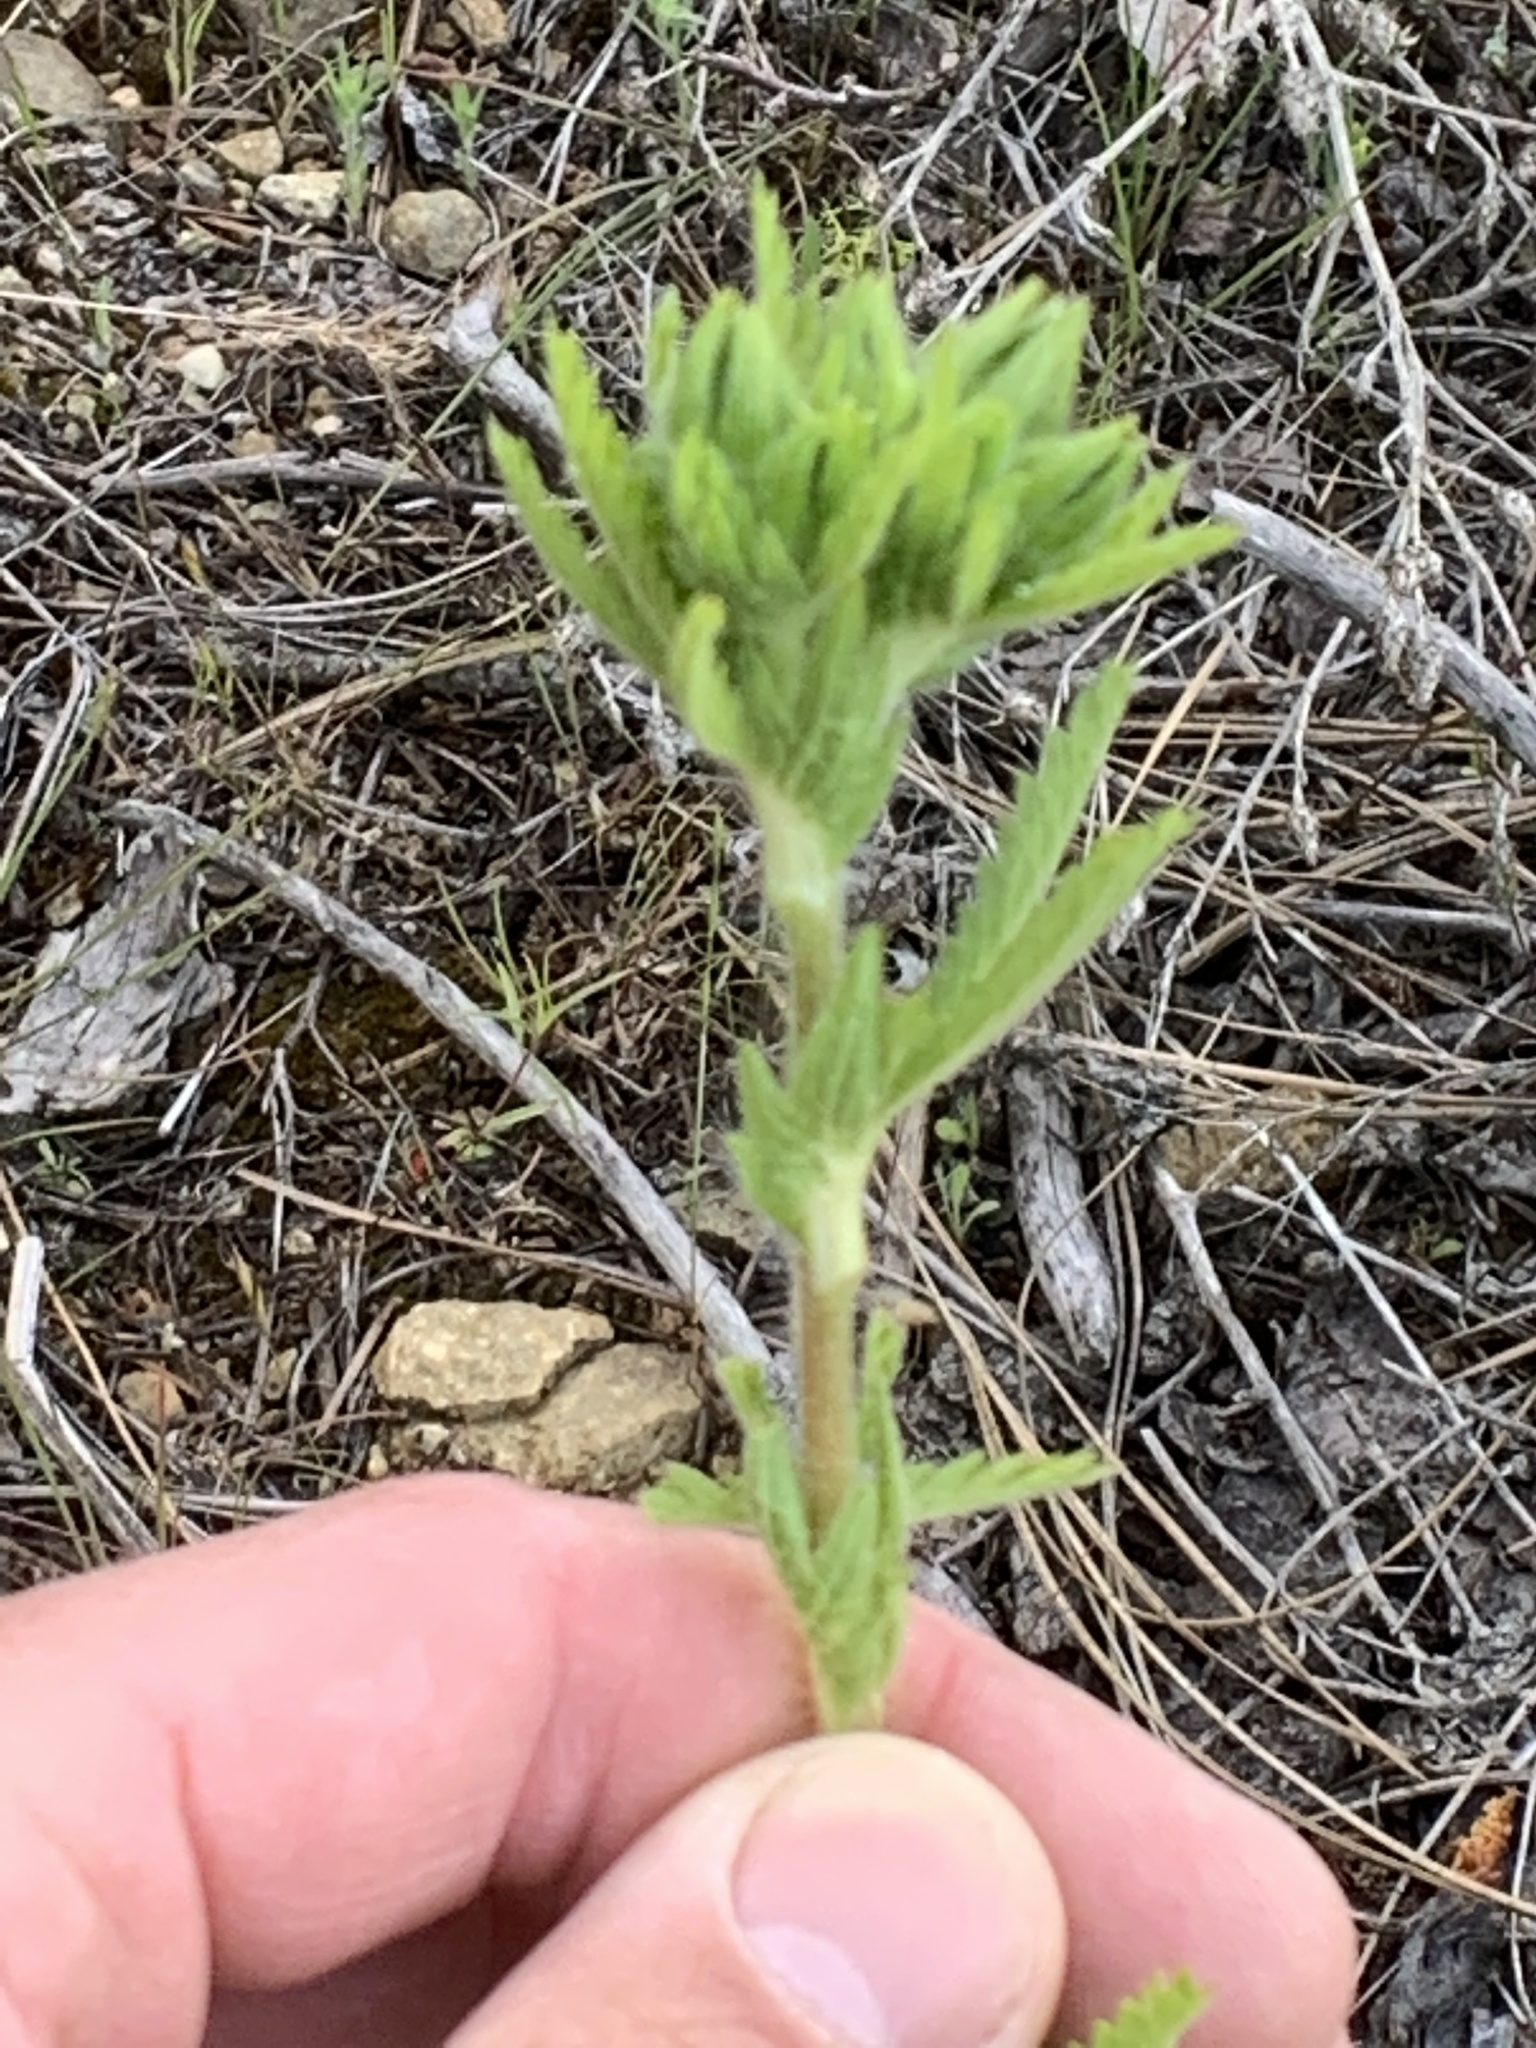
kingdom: Plantae
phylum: Tracheophyta
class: Magnoliopsida
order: Rosales
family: Rosaceae
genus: Potentilla
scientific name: Potentilla recta
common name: Sulphur cinquefoil
